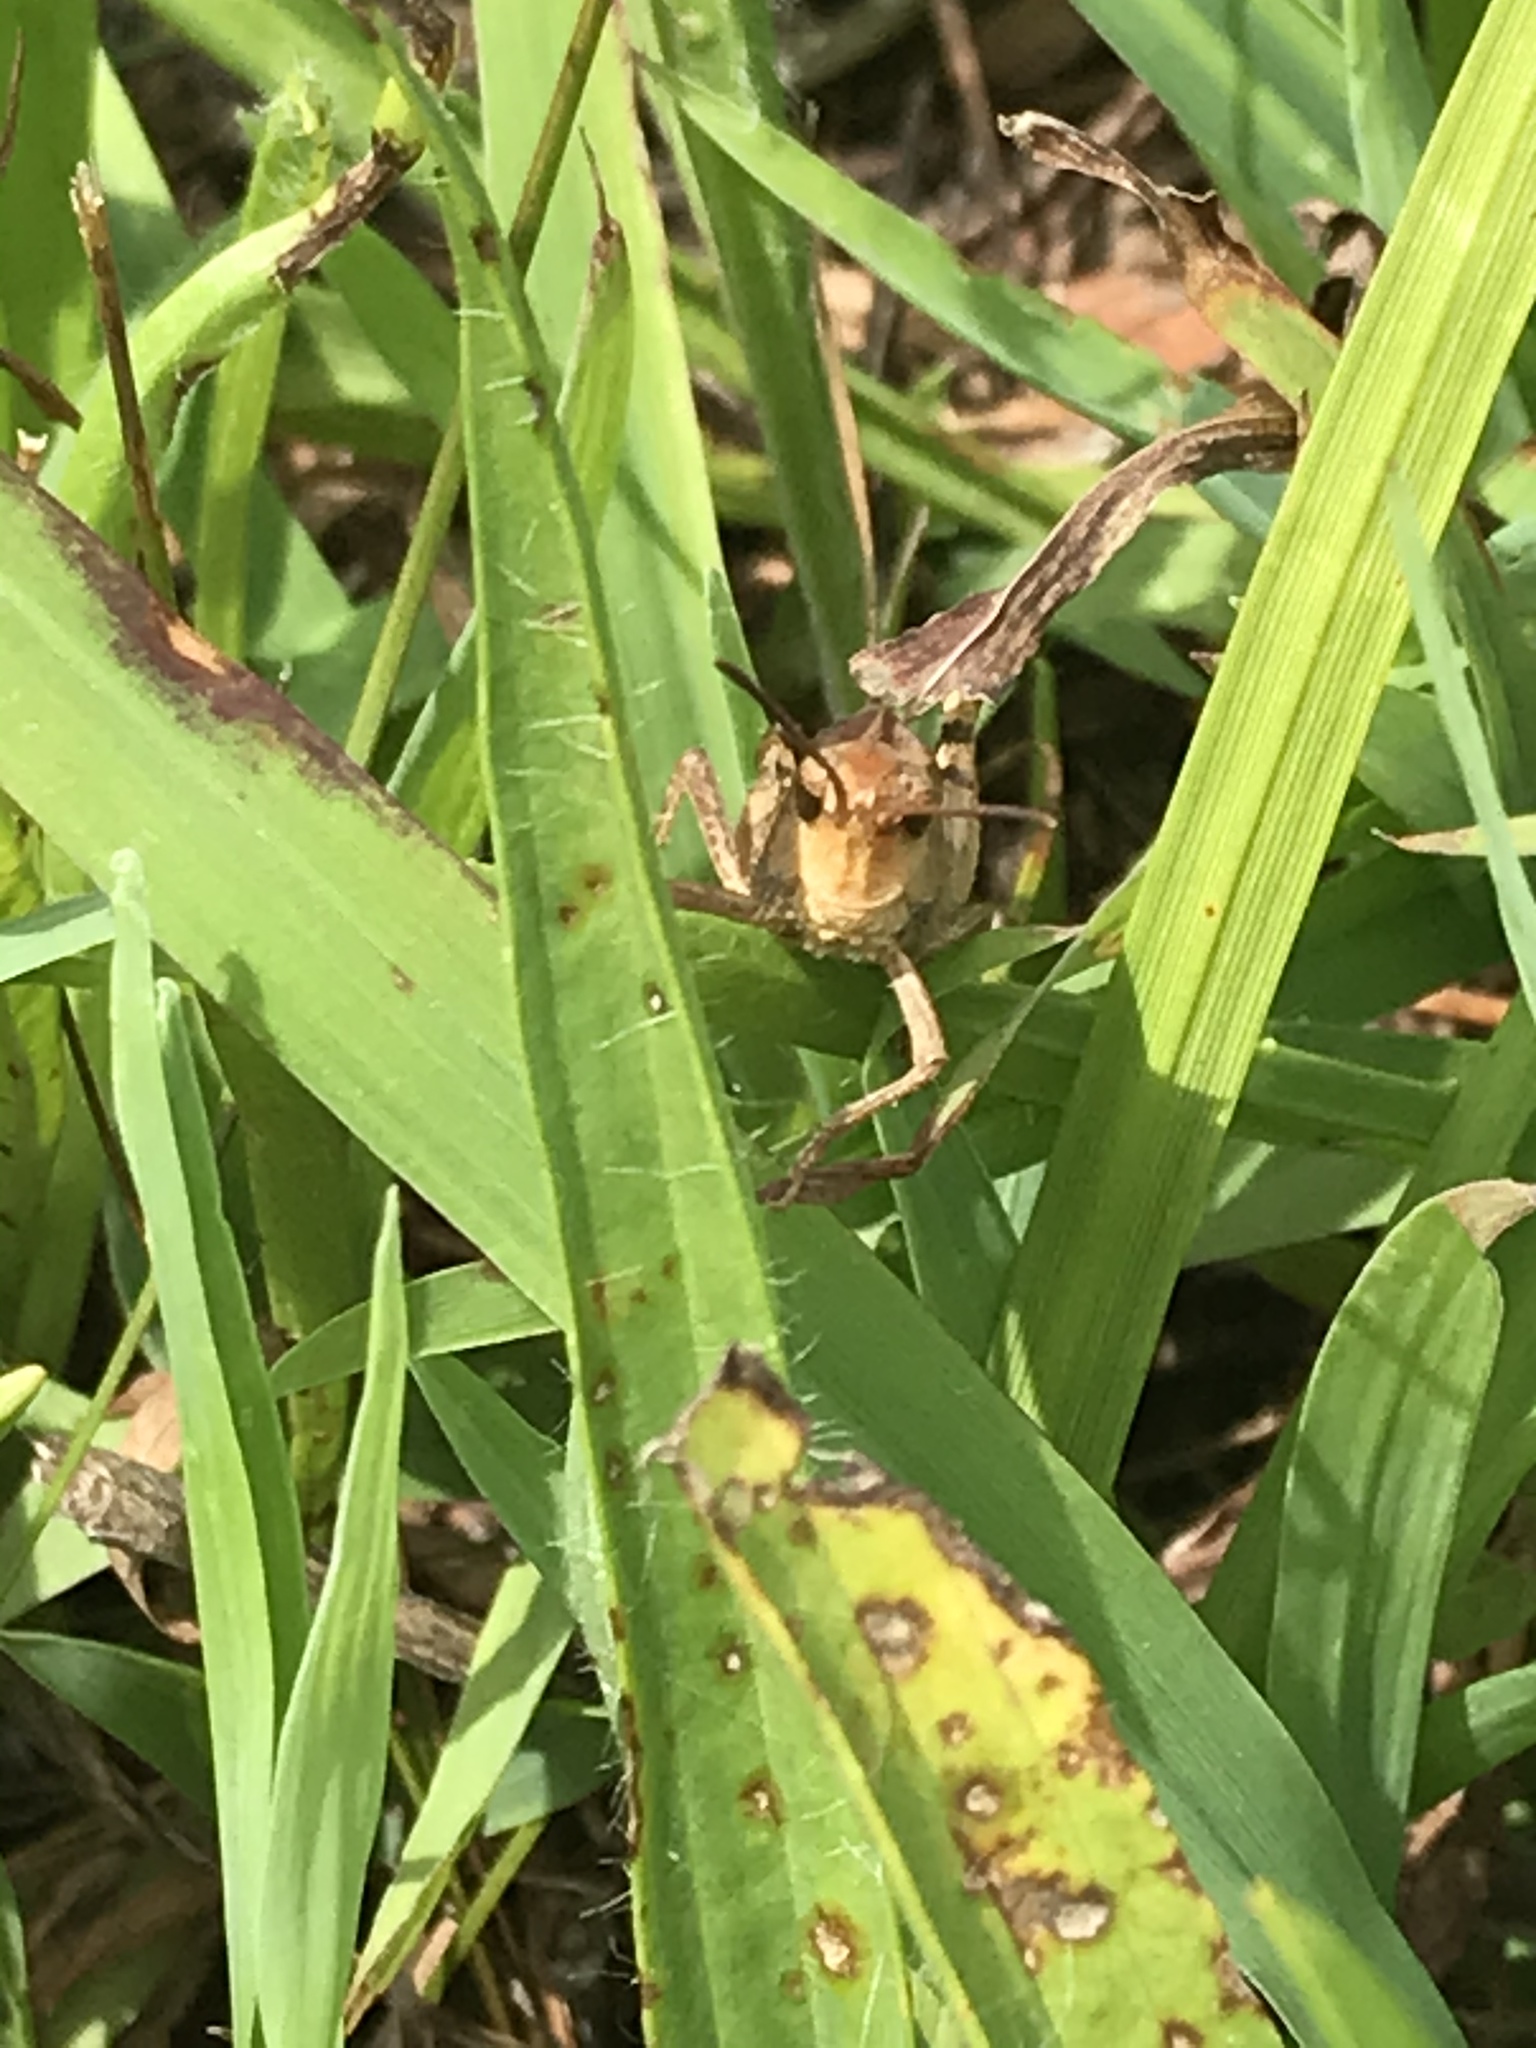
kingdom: Animalia
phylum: Arthropoda
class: Insecta
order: Orthoptera
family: Acrididae
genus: Chortophaga
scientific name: Chortophaga viridifasciata
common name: Green-striped grasshopper
